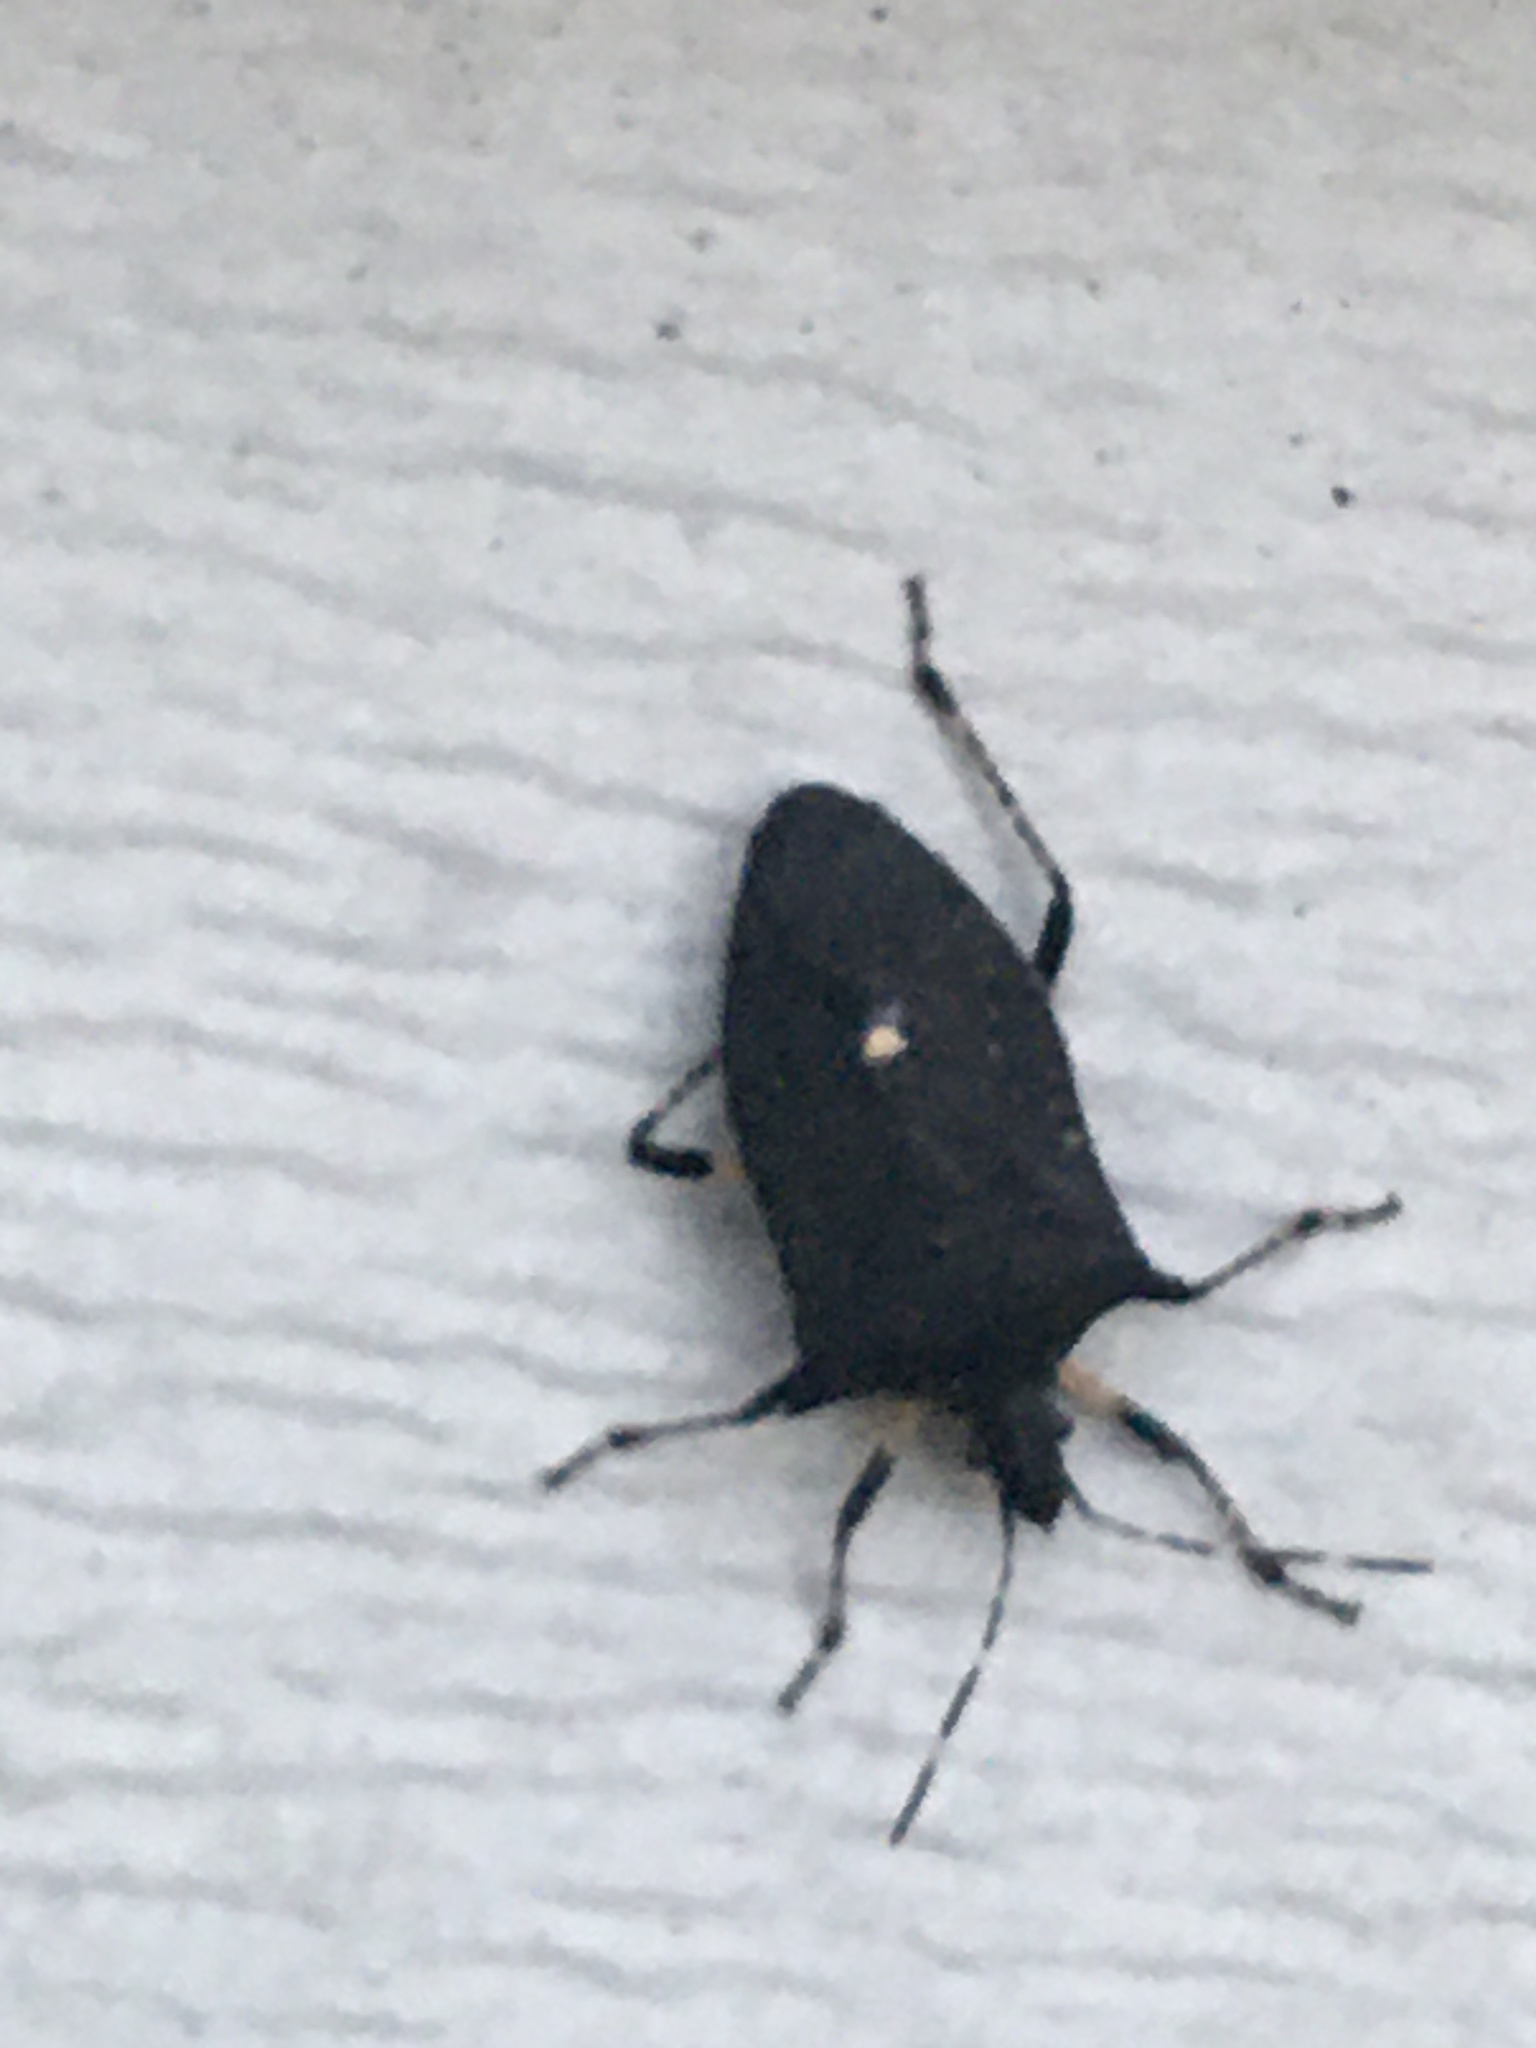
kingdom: Animalia
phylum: Arthropoda
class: Insecta
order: Hemiptera
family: Pentatomidae
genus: Proxys
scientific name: Proxys punctulatus
